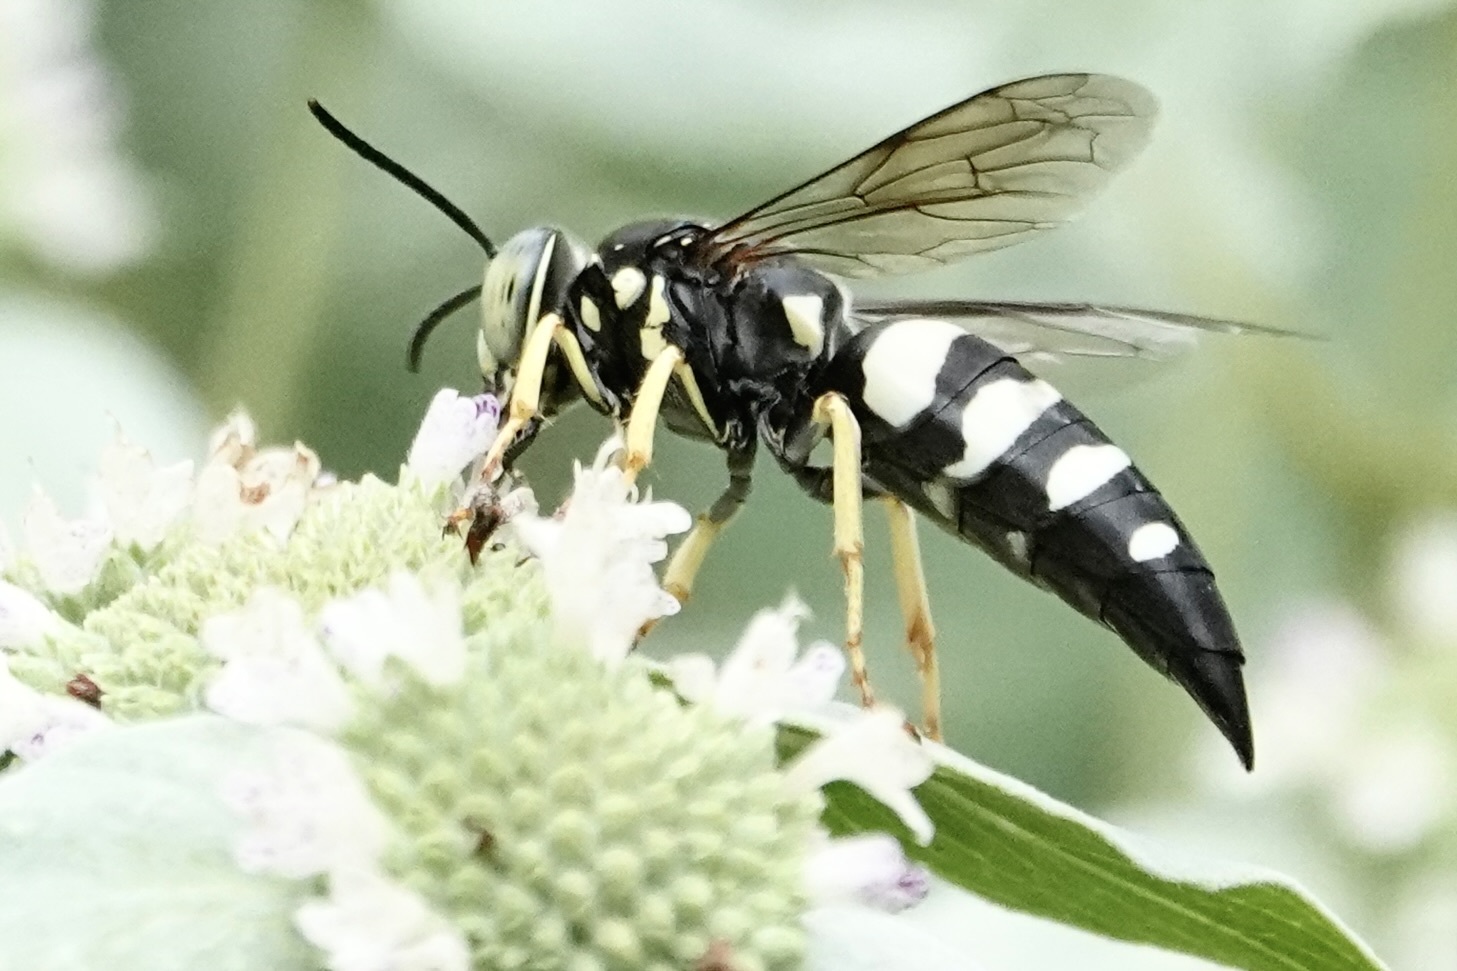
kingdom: Animalia
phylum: Arthropoda
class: Insecta
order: Hymenoptera
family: Crabronidae
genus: Bicyrtes
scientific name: Bicyrtes quadrifasciatus
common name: Four-banded stink bug hunter wasp
